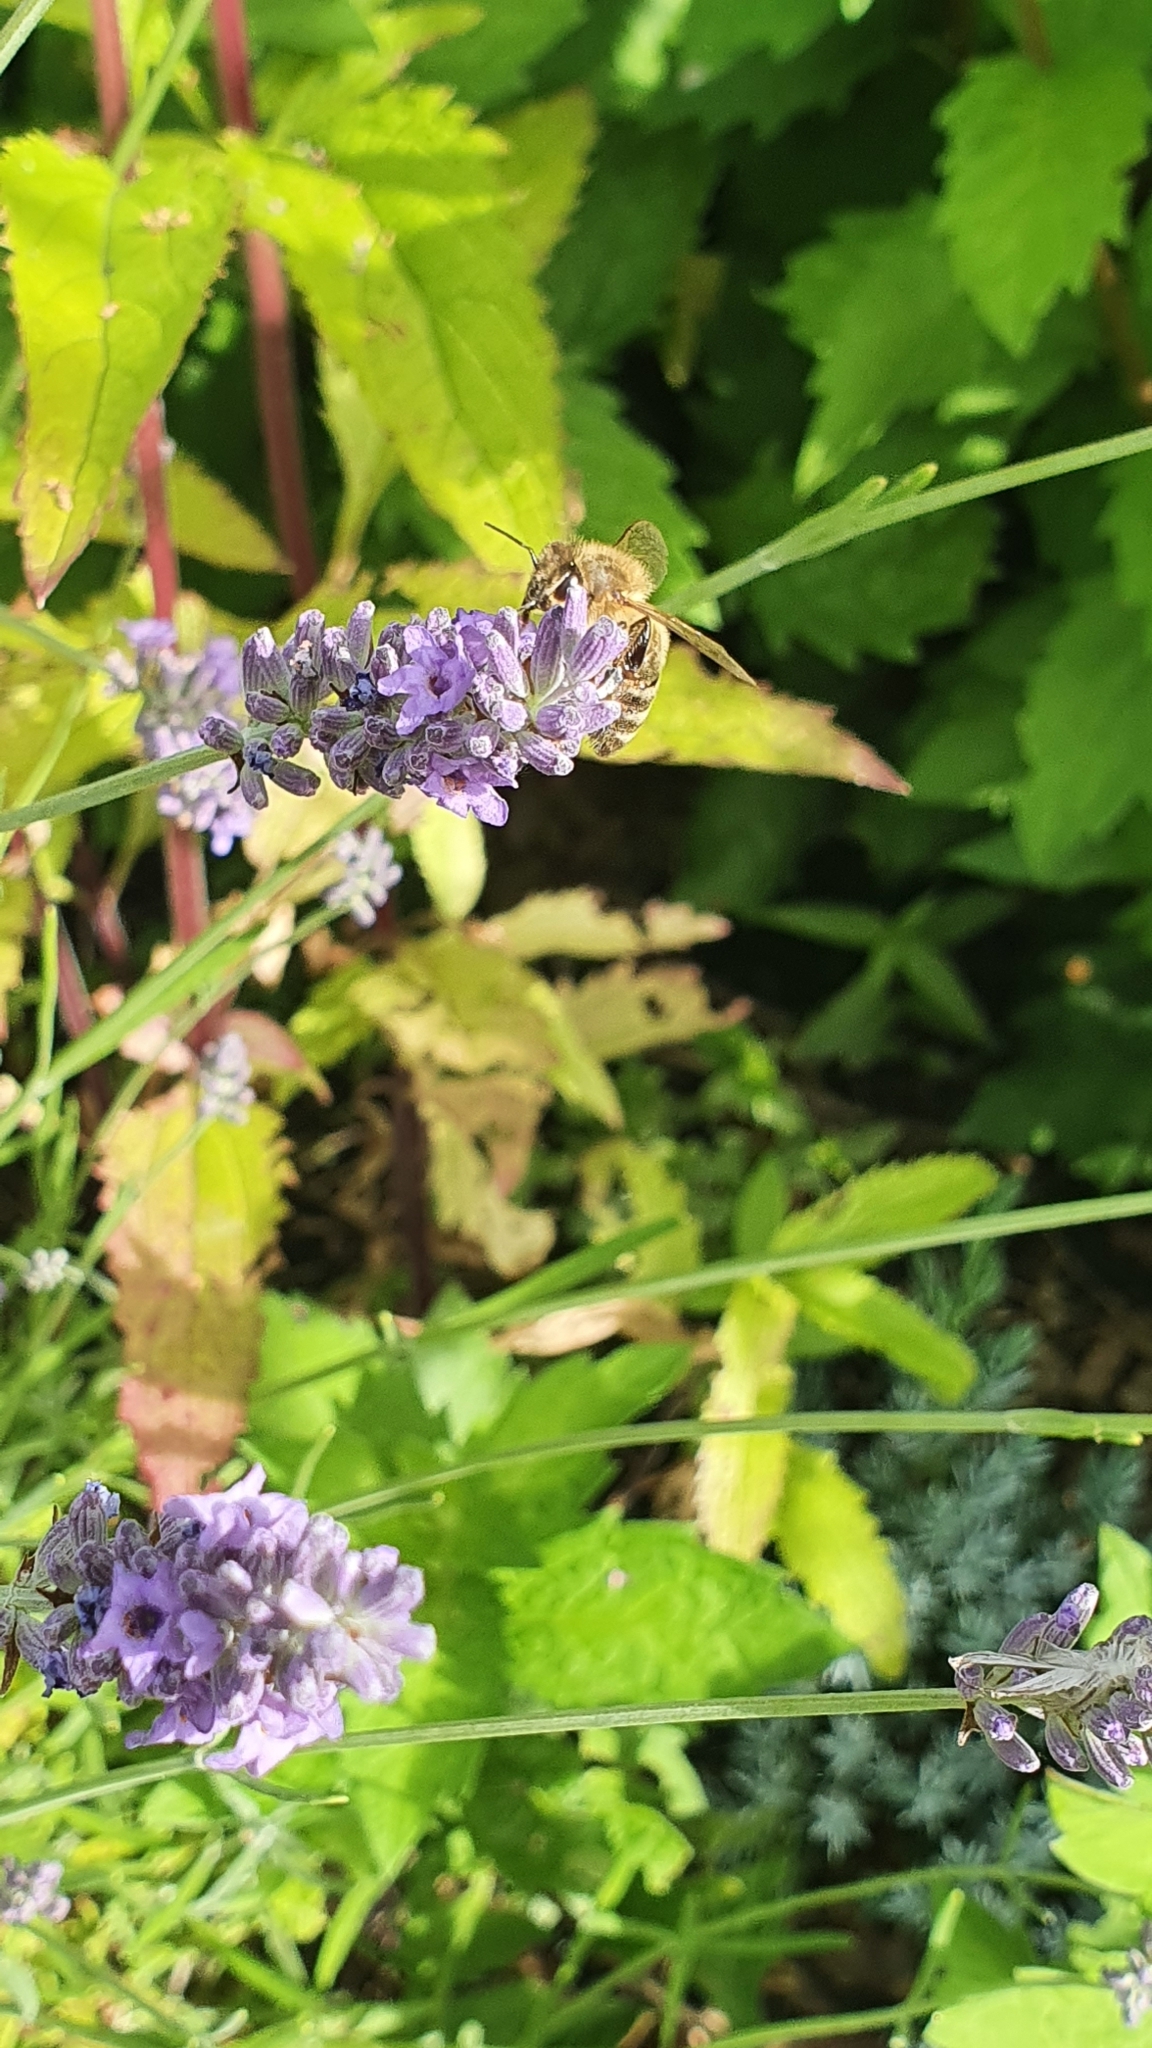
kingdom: Animalia
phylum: Arthropoda
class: Insecta
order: Hymenoptera
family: Apidae
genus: Apis
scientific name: Apis mellifera
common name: Honey bee
